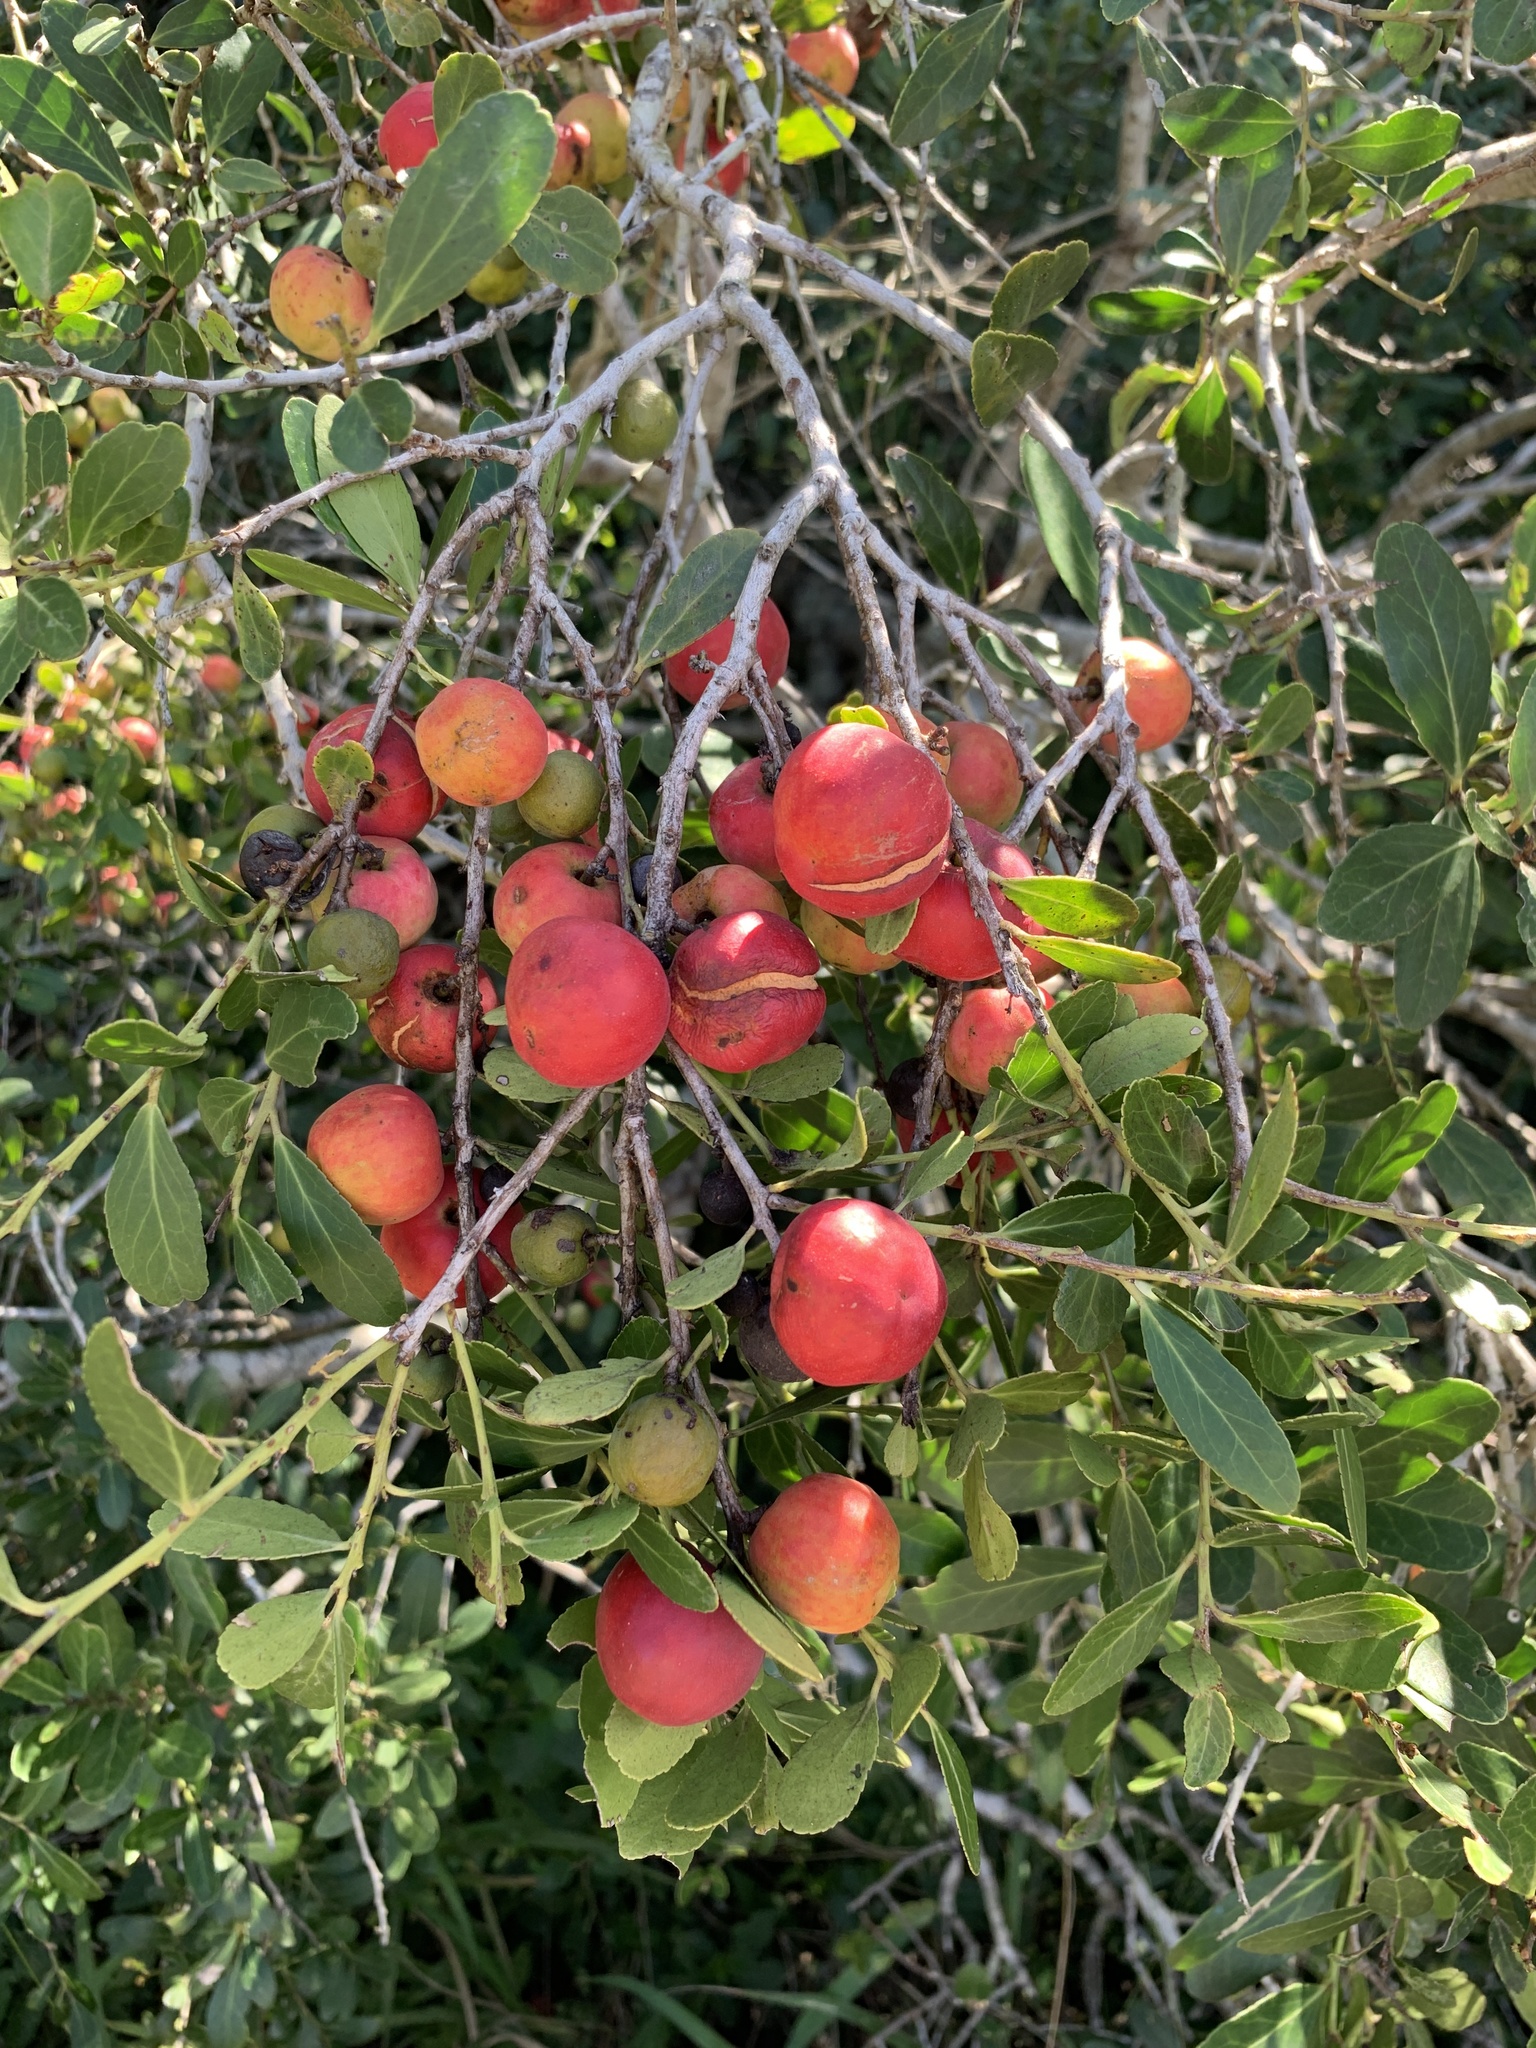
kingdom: Plantae
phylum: Tracheophyta
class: Magnoliopsida
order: Celastrales
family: Celastraceae
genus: Mystroxylon
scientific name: Mystroxylon aethiopicum
